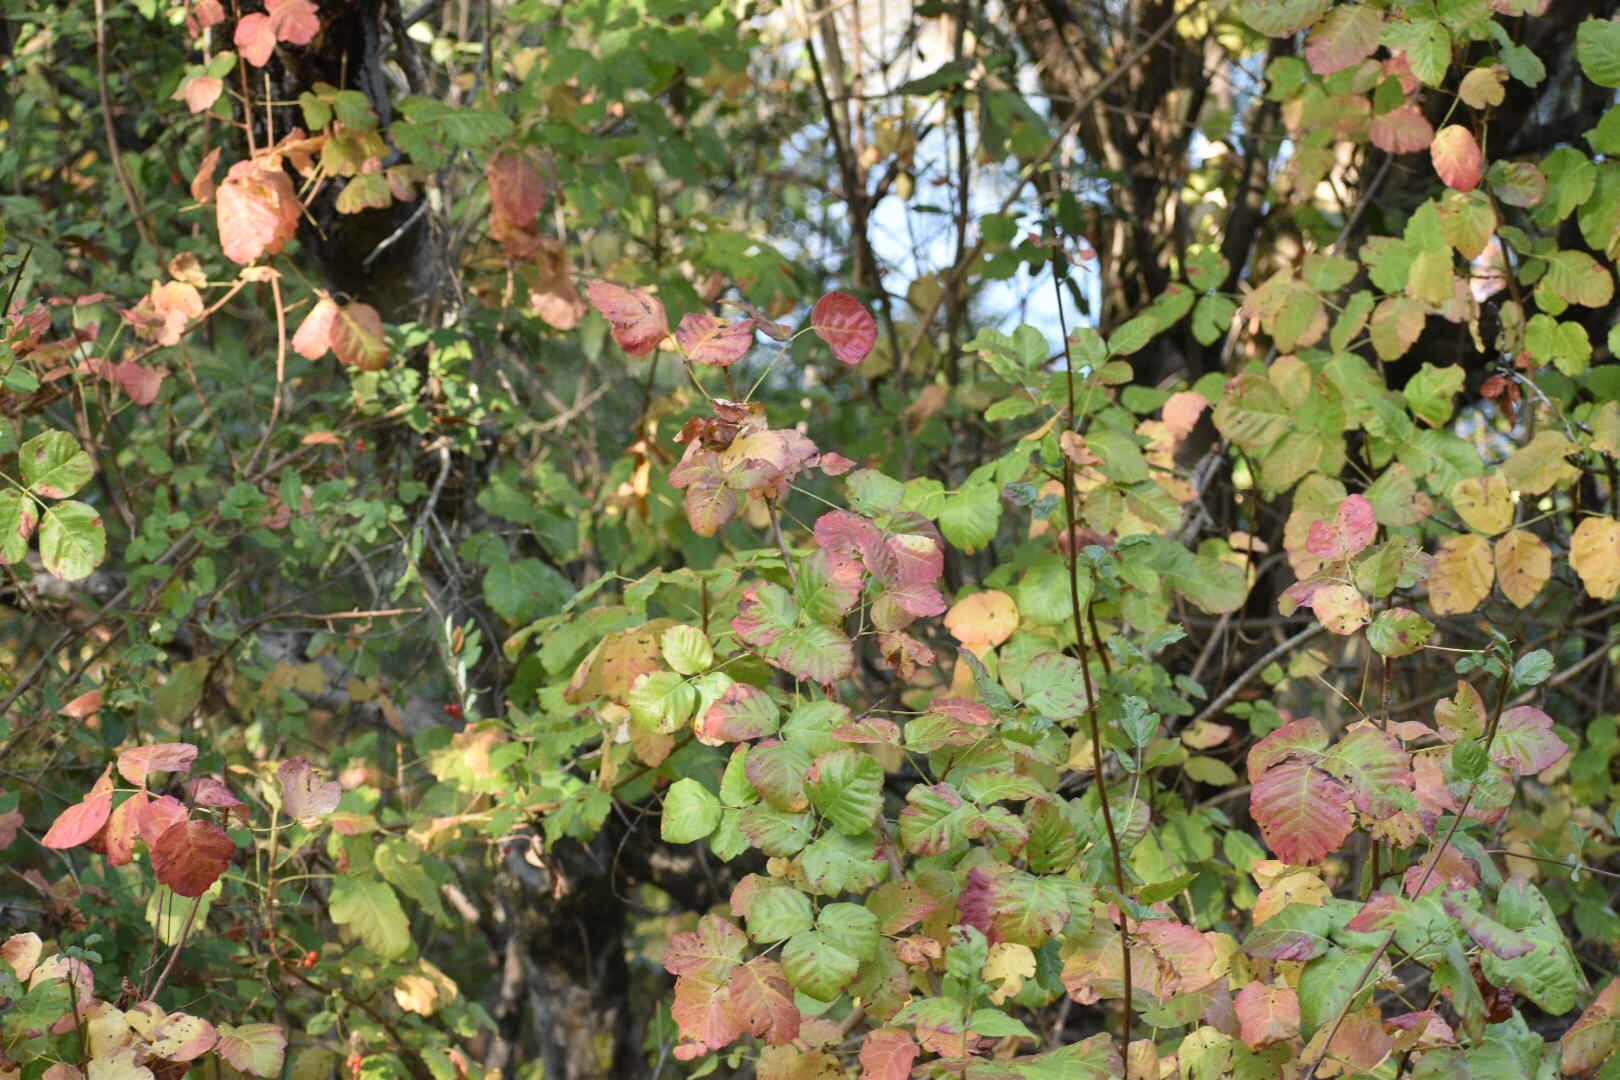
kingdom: Plantae
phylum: Tracheophyta
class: Magnoliopsida
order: Sapindales
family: Anacardiaceae
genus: Toxicodendron
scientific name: Toxicodendron diversilobum
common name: Pacific poison-oak
